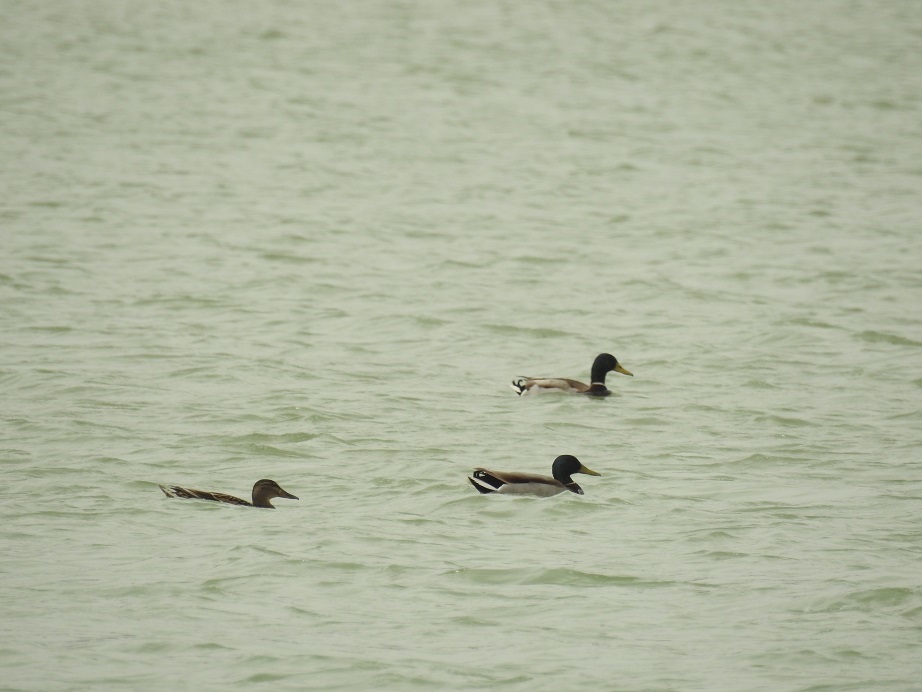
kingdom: Animalia
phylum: Chordata
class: Aves
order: Anseriformes
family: Anatidae
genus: Anas
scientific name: Anas platyrhynchos
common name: Mallard
